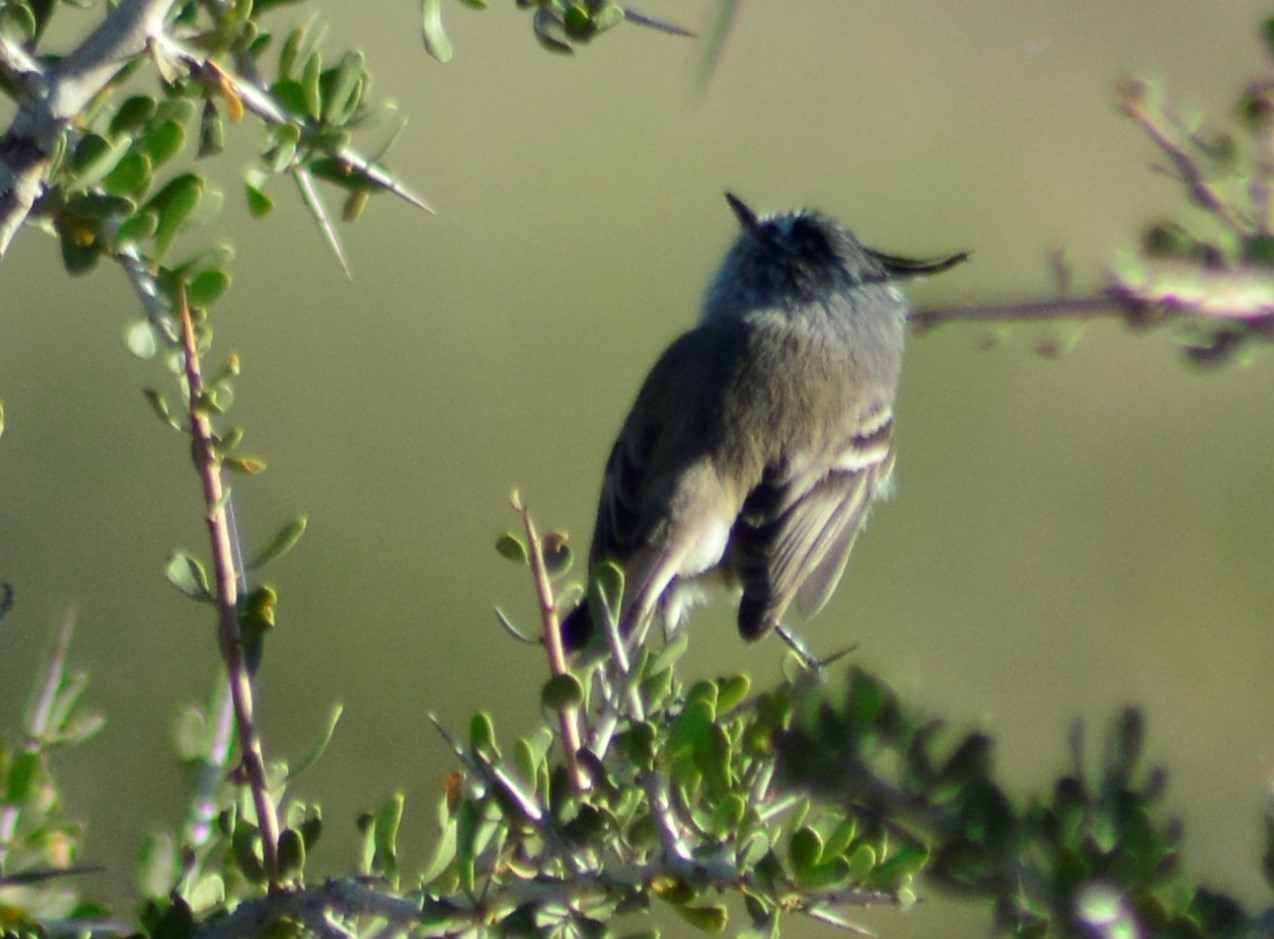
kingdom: Animalia
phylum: Chordata
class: Aves
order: Passeriformes
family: Tyrannidae
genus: Anairetes
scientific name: Anairetes parulus
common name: Tufted tit-tyrant
